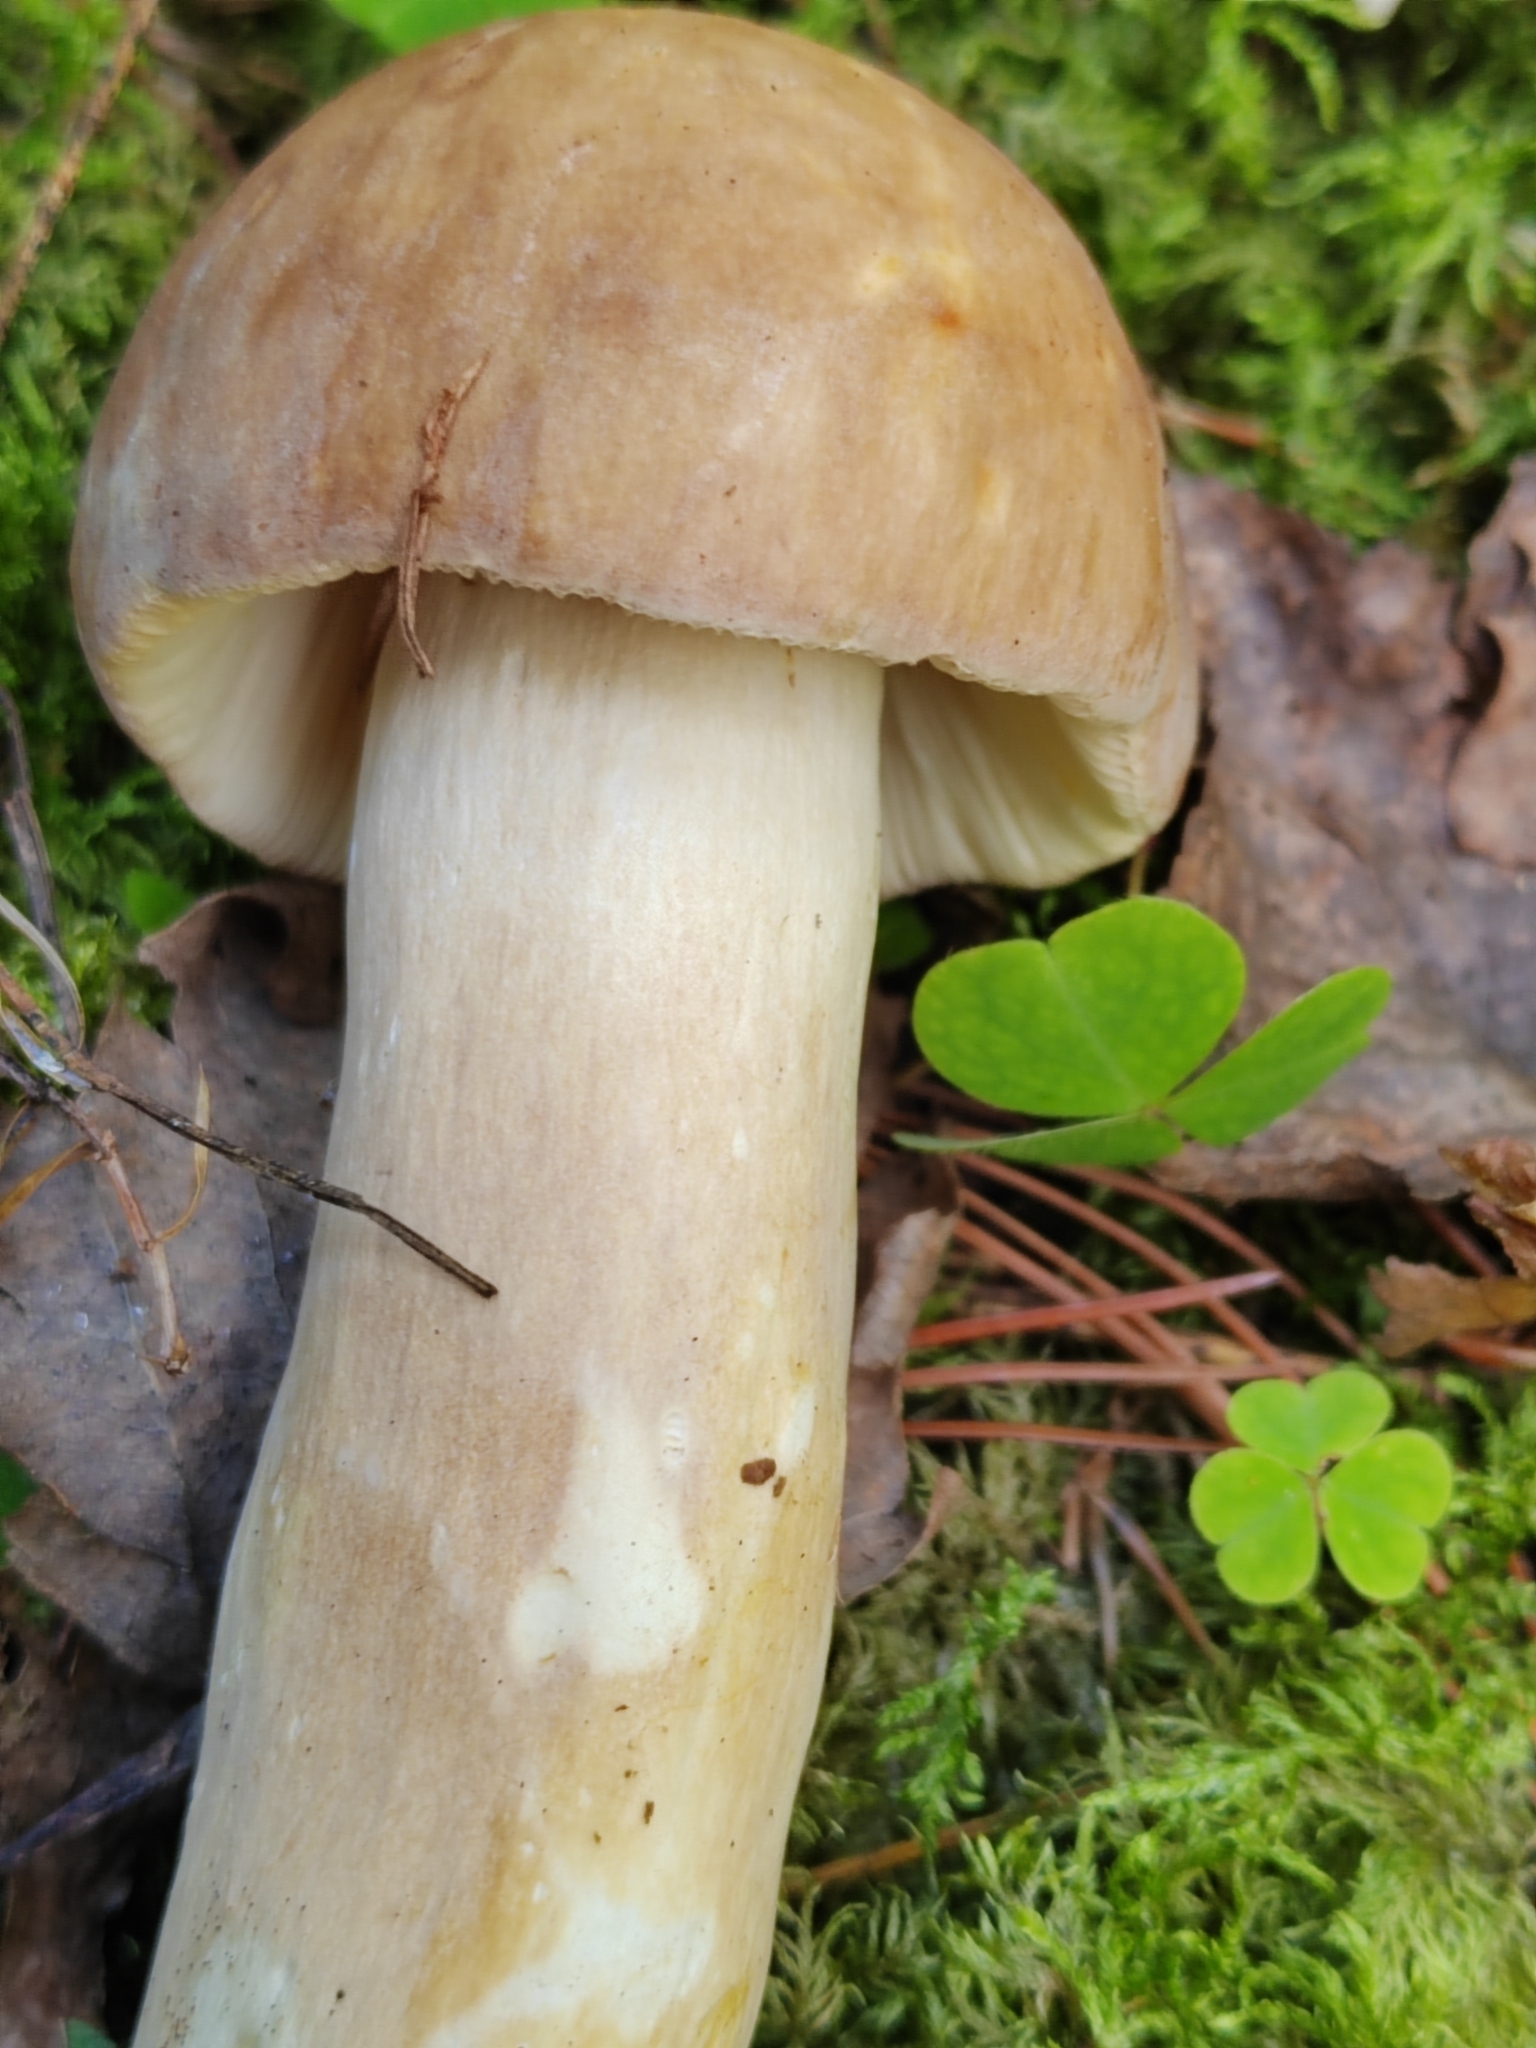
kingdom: Fungi
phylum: Basidiomycota
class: Agaricomycetes
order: Russulales
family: Russulaceae
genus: Russula
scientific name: Russula foetens
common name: Foetid russula
